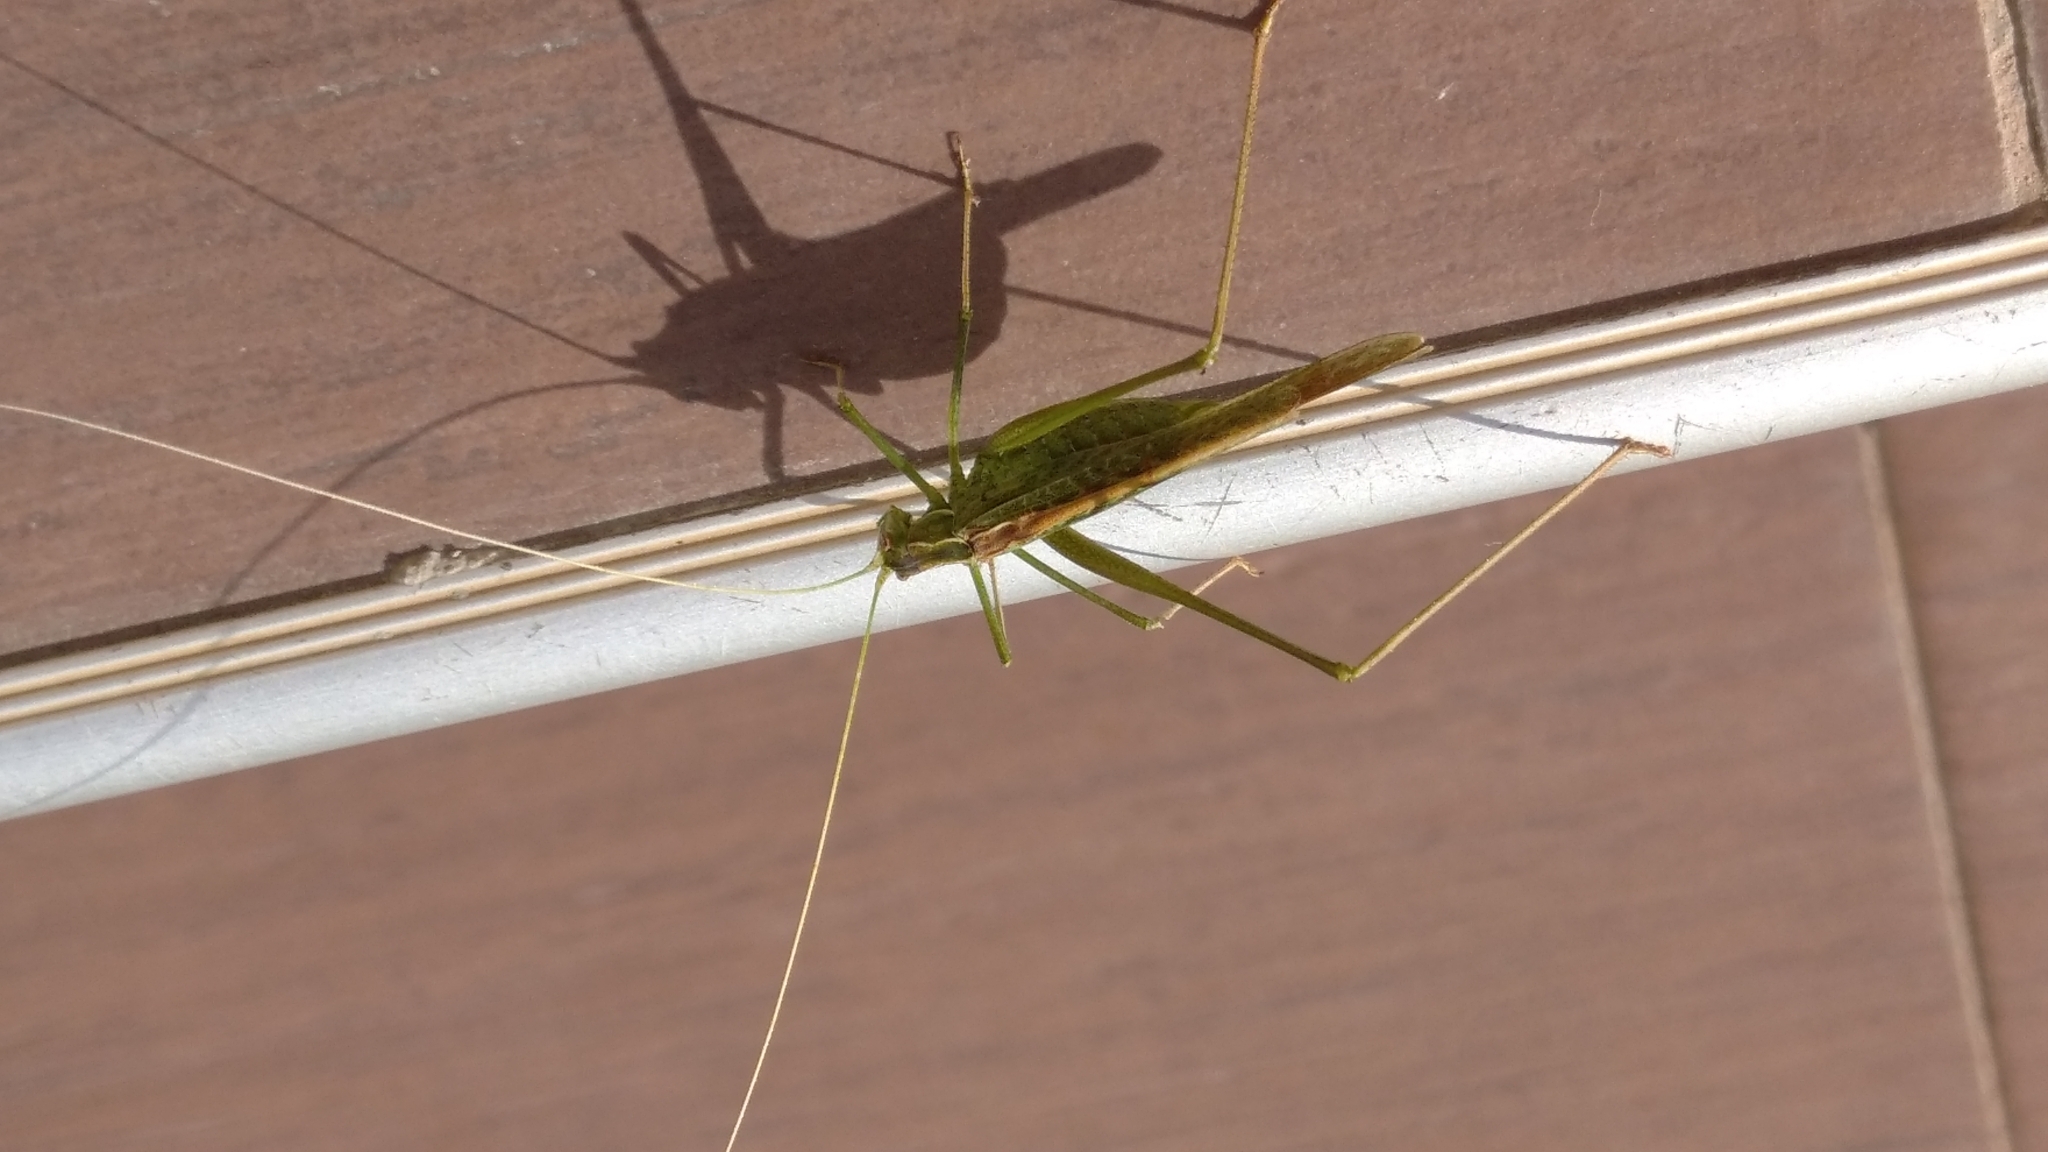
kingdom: Animalia
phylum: Arthropoda
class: Insecta
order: Orthoptera
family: Tettigoniidae
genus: Tylopsis
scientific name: Tylopsis lilifolia
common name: Lily bush-cricket
